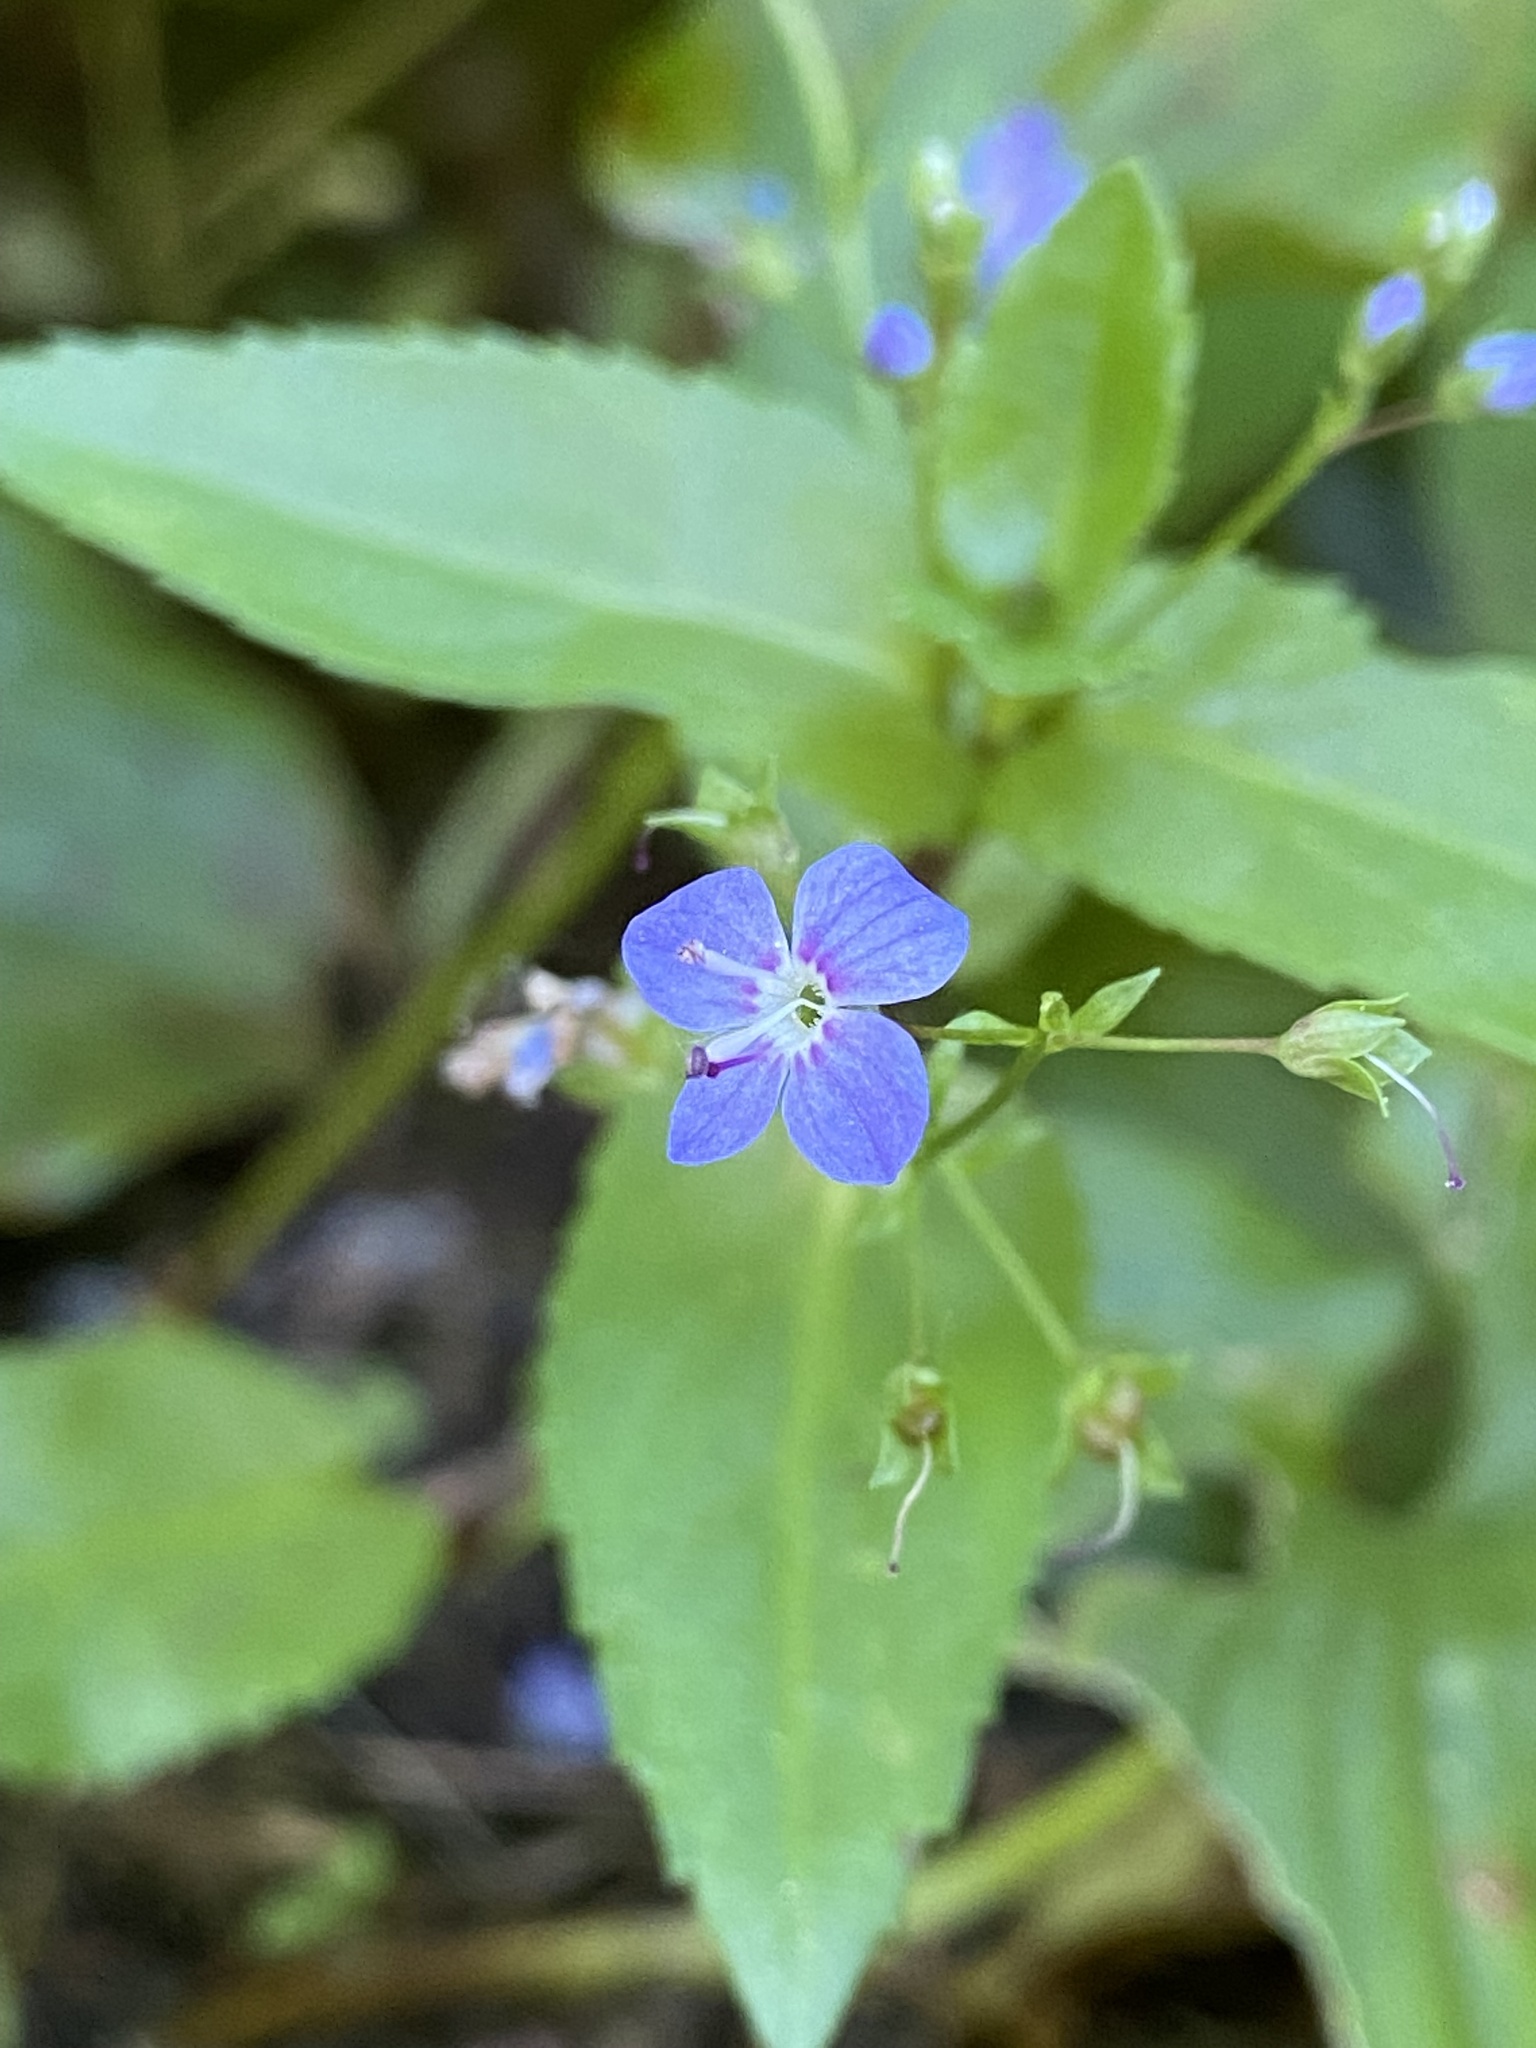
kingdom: Plantae
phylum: Tracheophyta
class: Magnoliopsida
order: Lamiales
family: Plantaginaceae
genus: Veronica
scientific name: Veronica americana
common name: American brooklime
